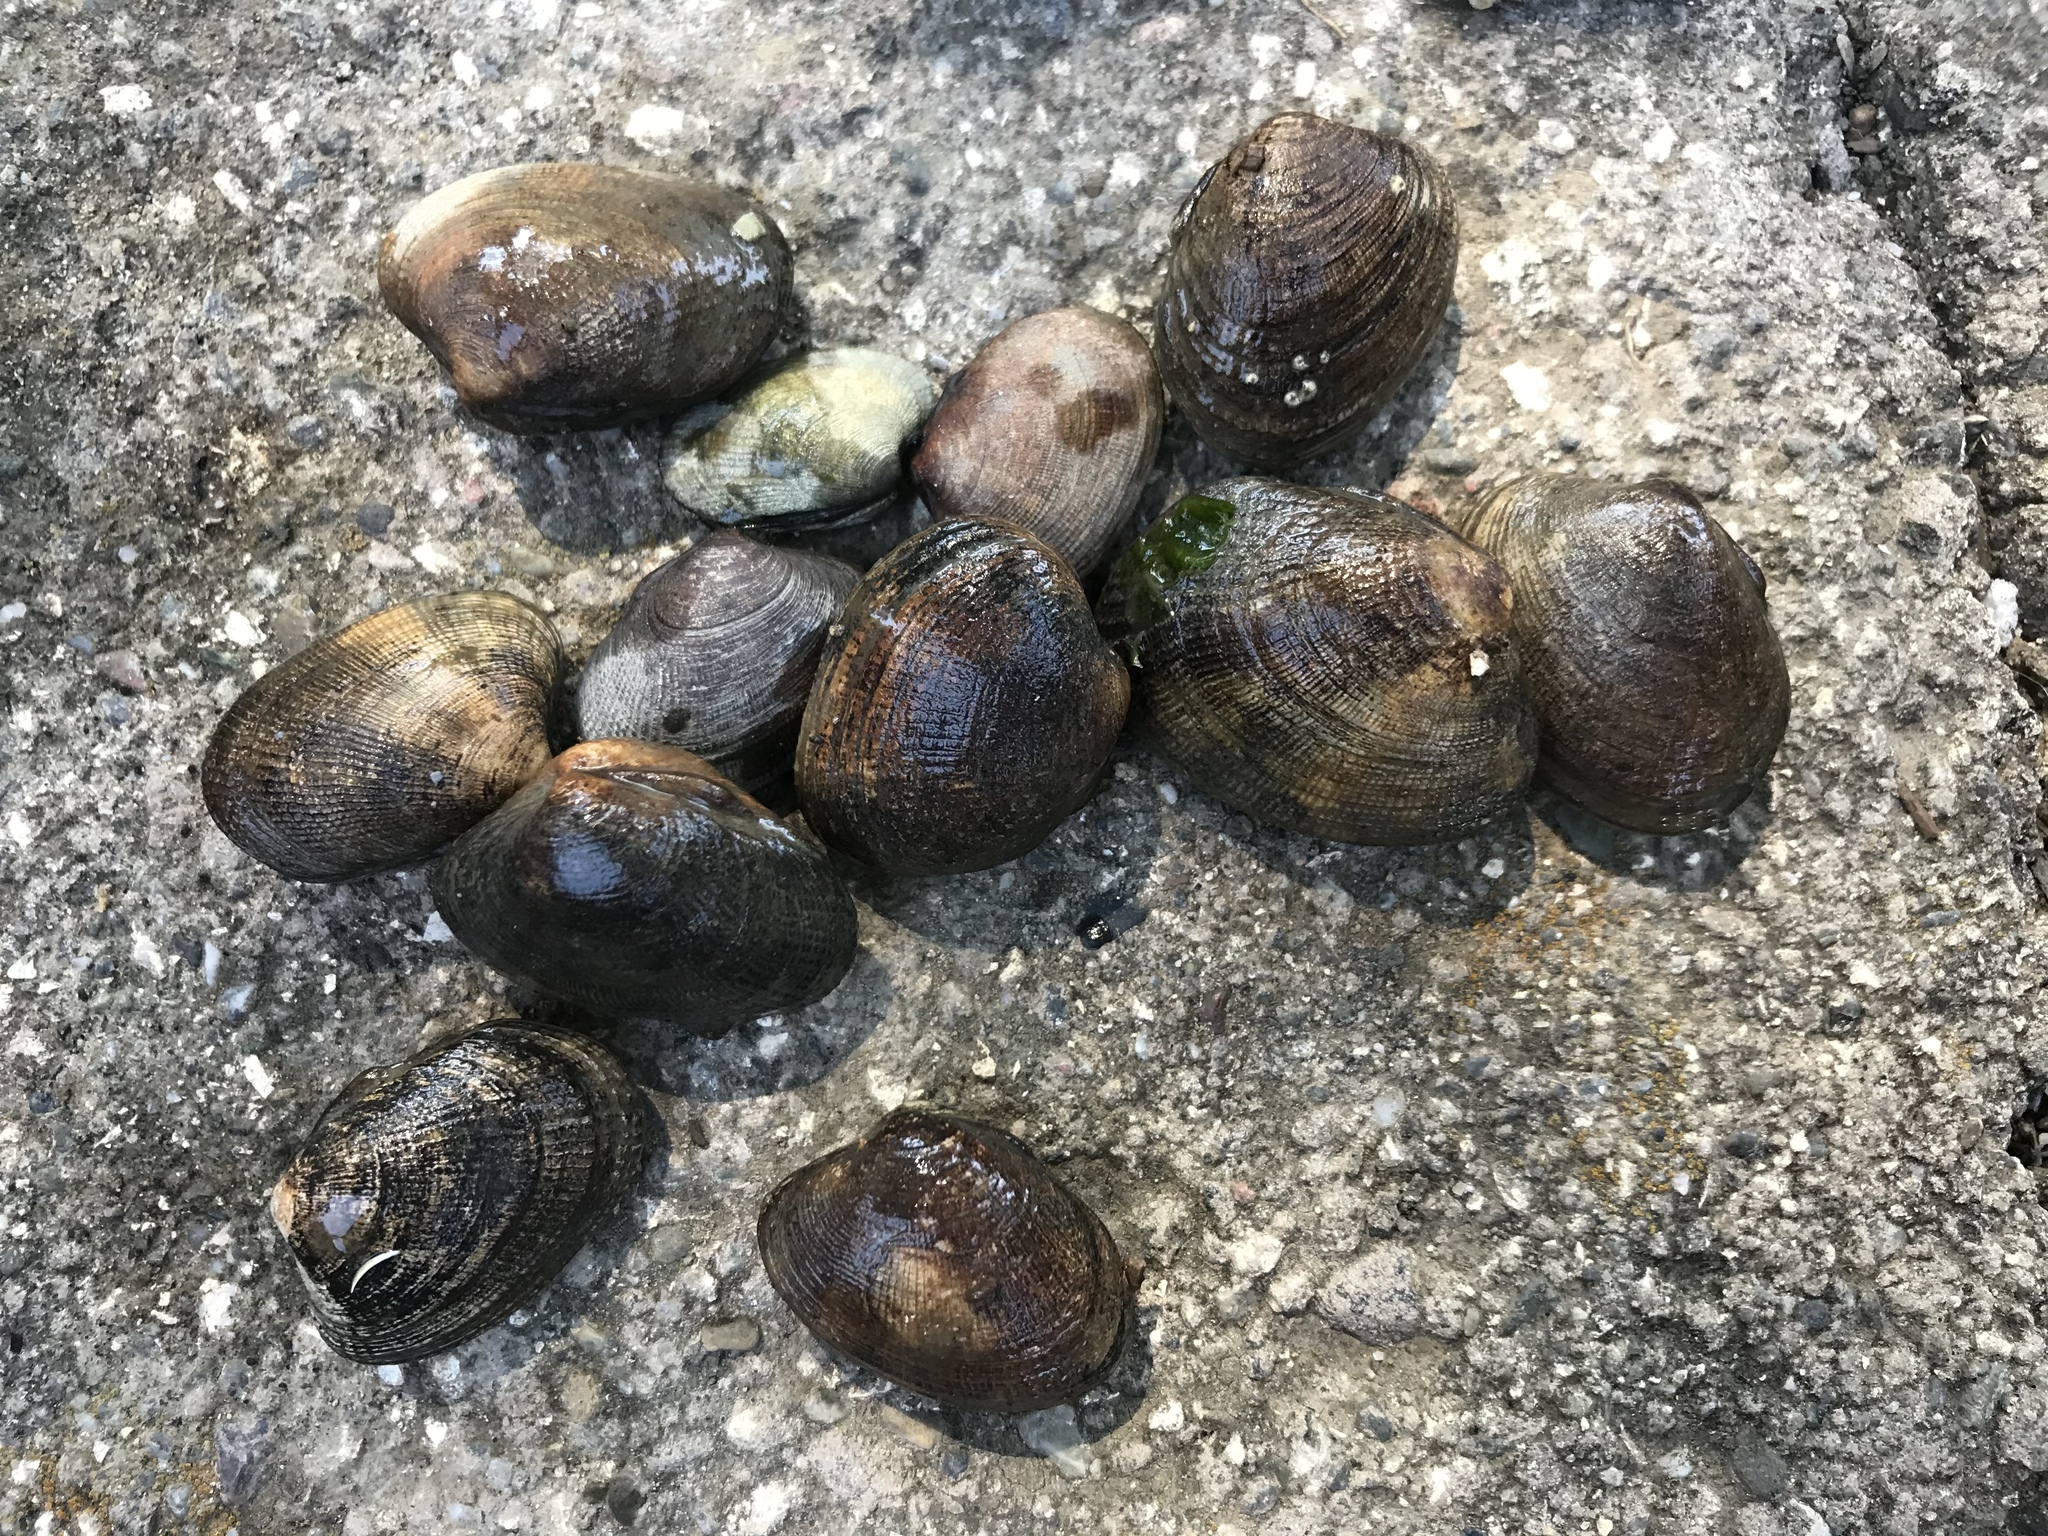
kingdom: Animalia
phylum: Mollusca
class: Bivalvia
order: Venerida
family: Veneridae
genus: Ruditapes
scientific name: Ruditapes philippinarum
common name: Manila clam
